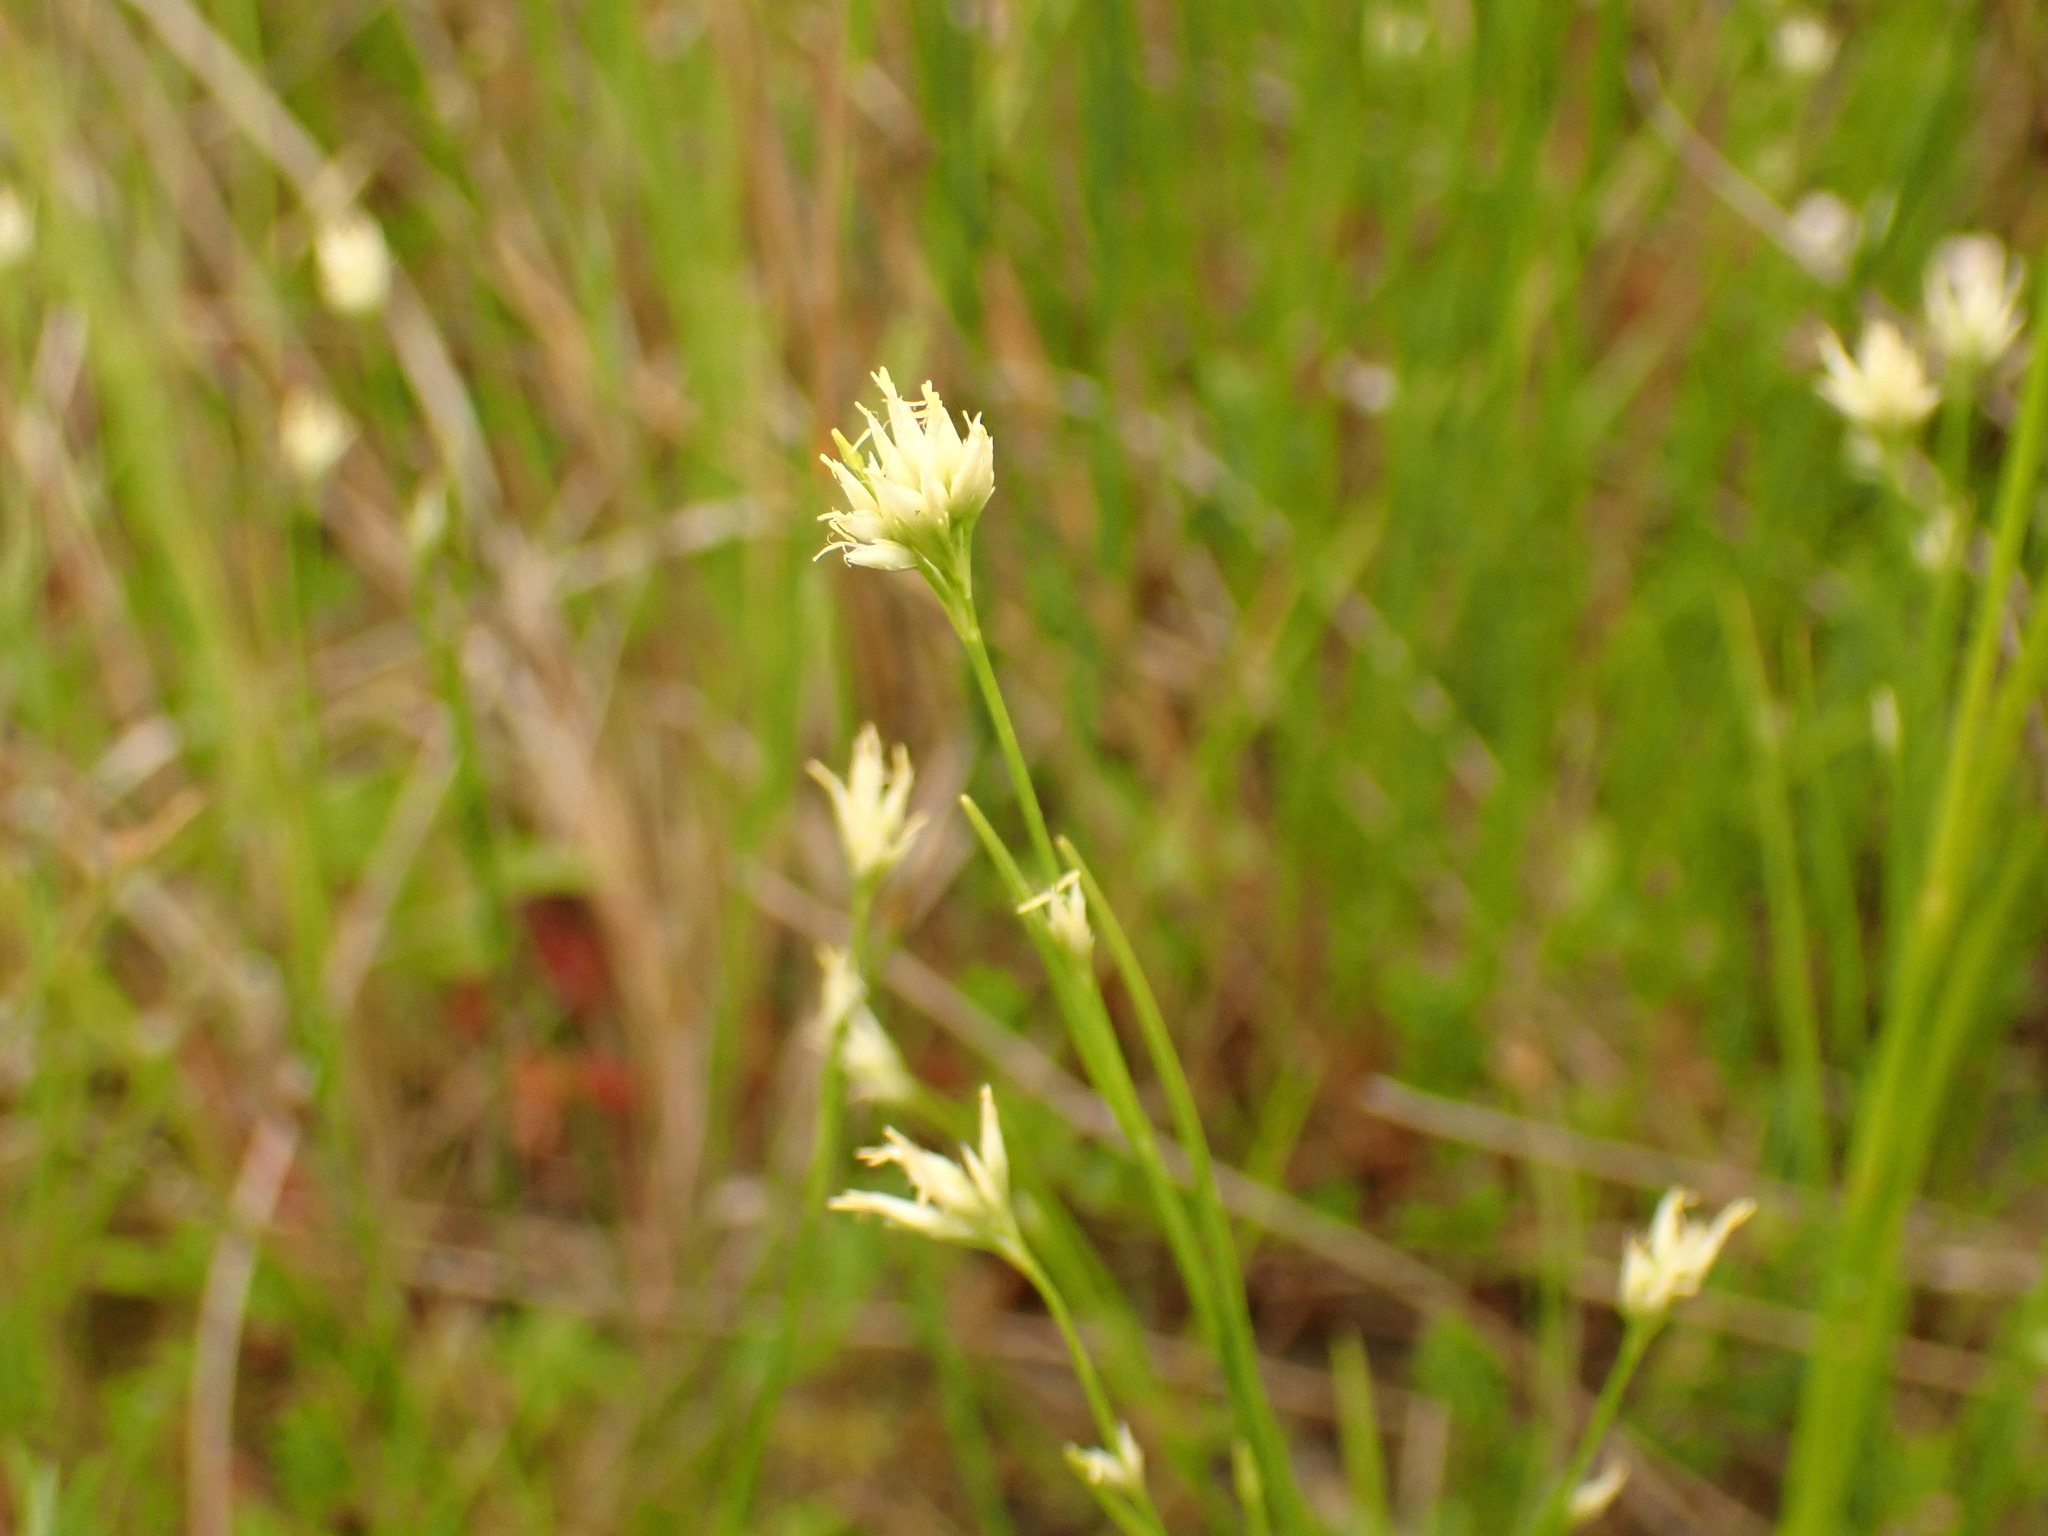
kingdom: Plantae
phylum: Tracheophyta
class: Liliopsida
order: Poales
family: Cyperaceae
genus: Rhynchospora
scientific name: Rhynchospora alba
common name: White beak-sedge
